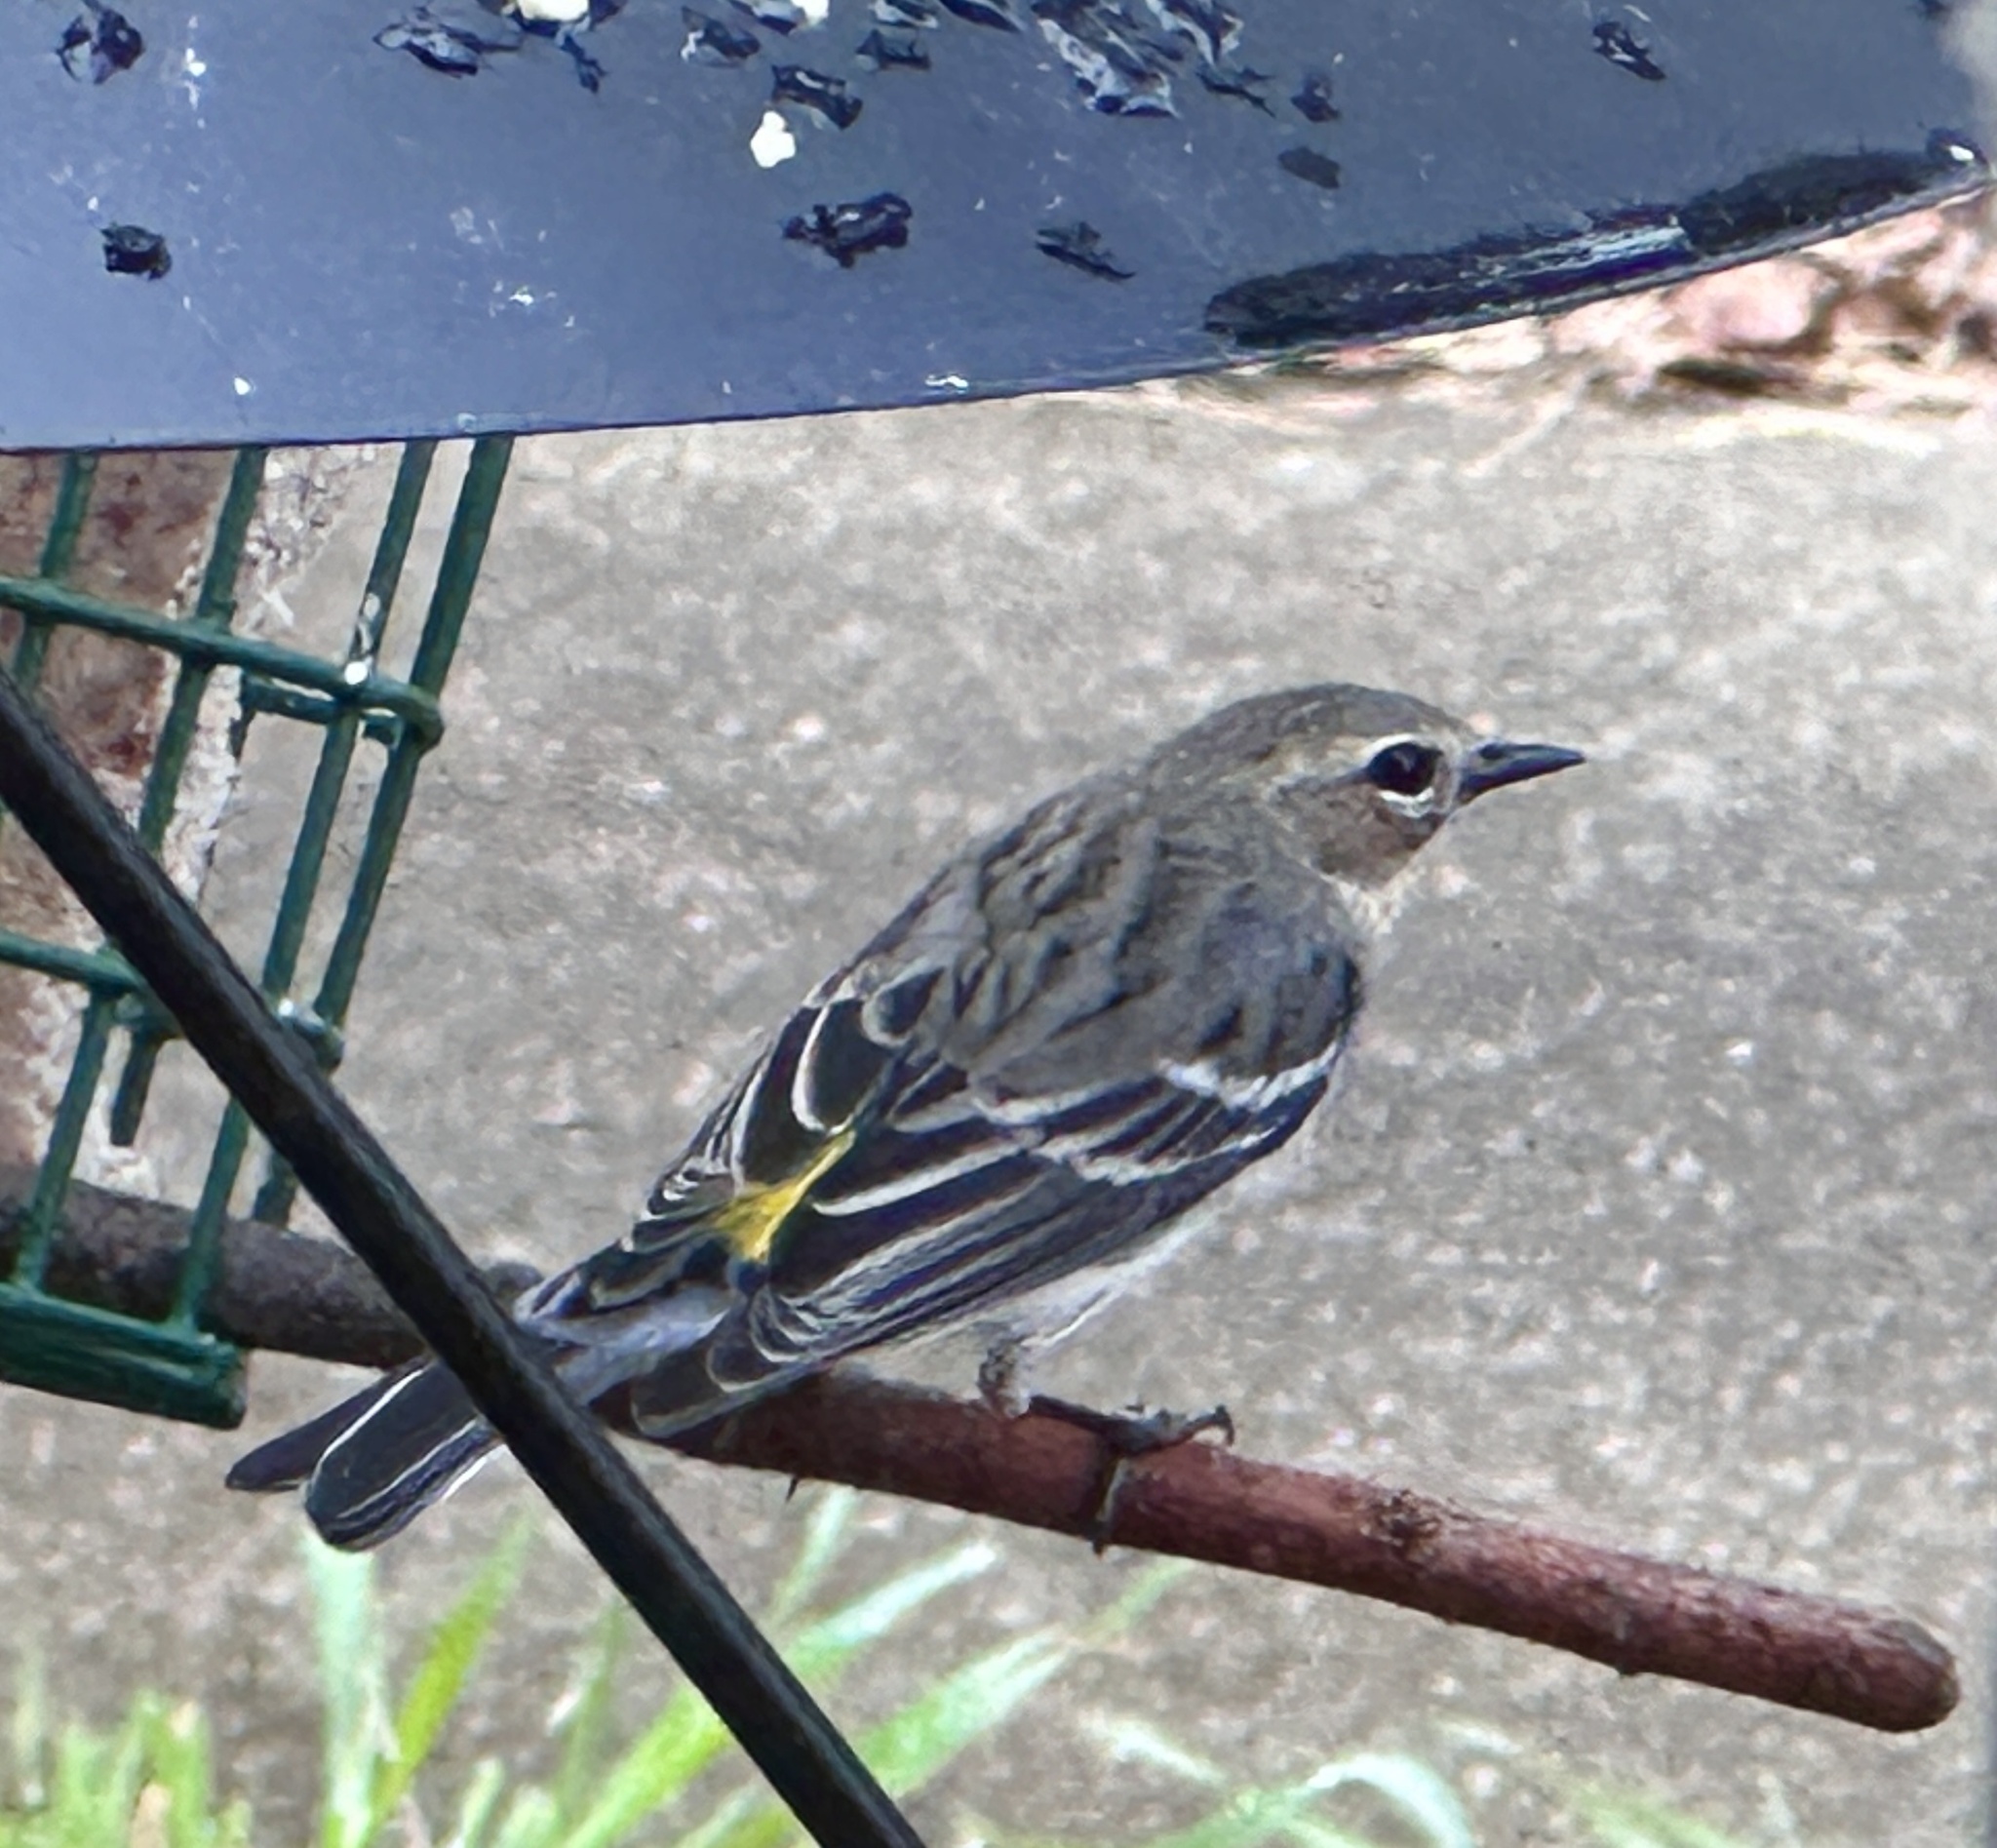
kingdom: Animalia
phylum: Chordata
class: Aves
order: Passeriformes
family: Parulidae
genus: Setophaga
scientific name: Setophaga coronata
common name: Myrtle warbler
